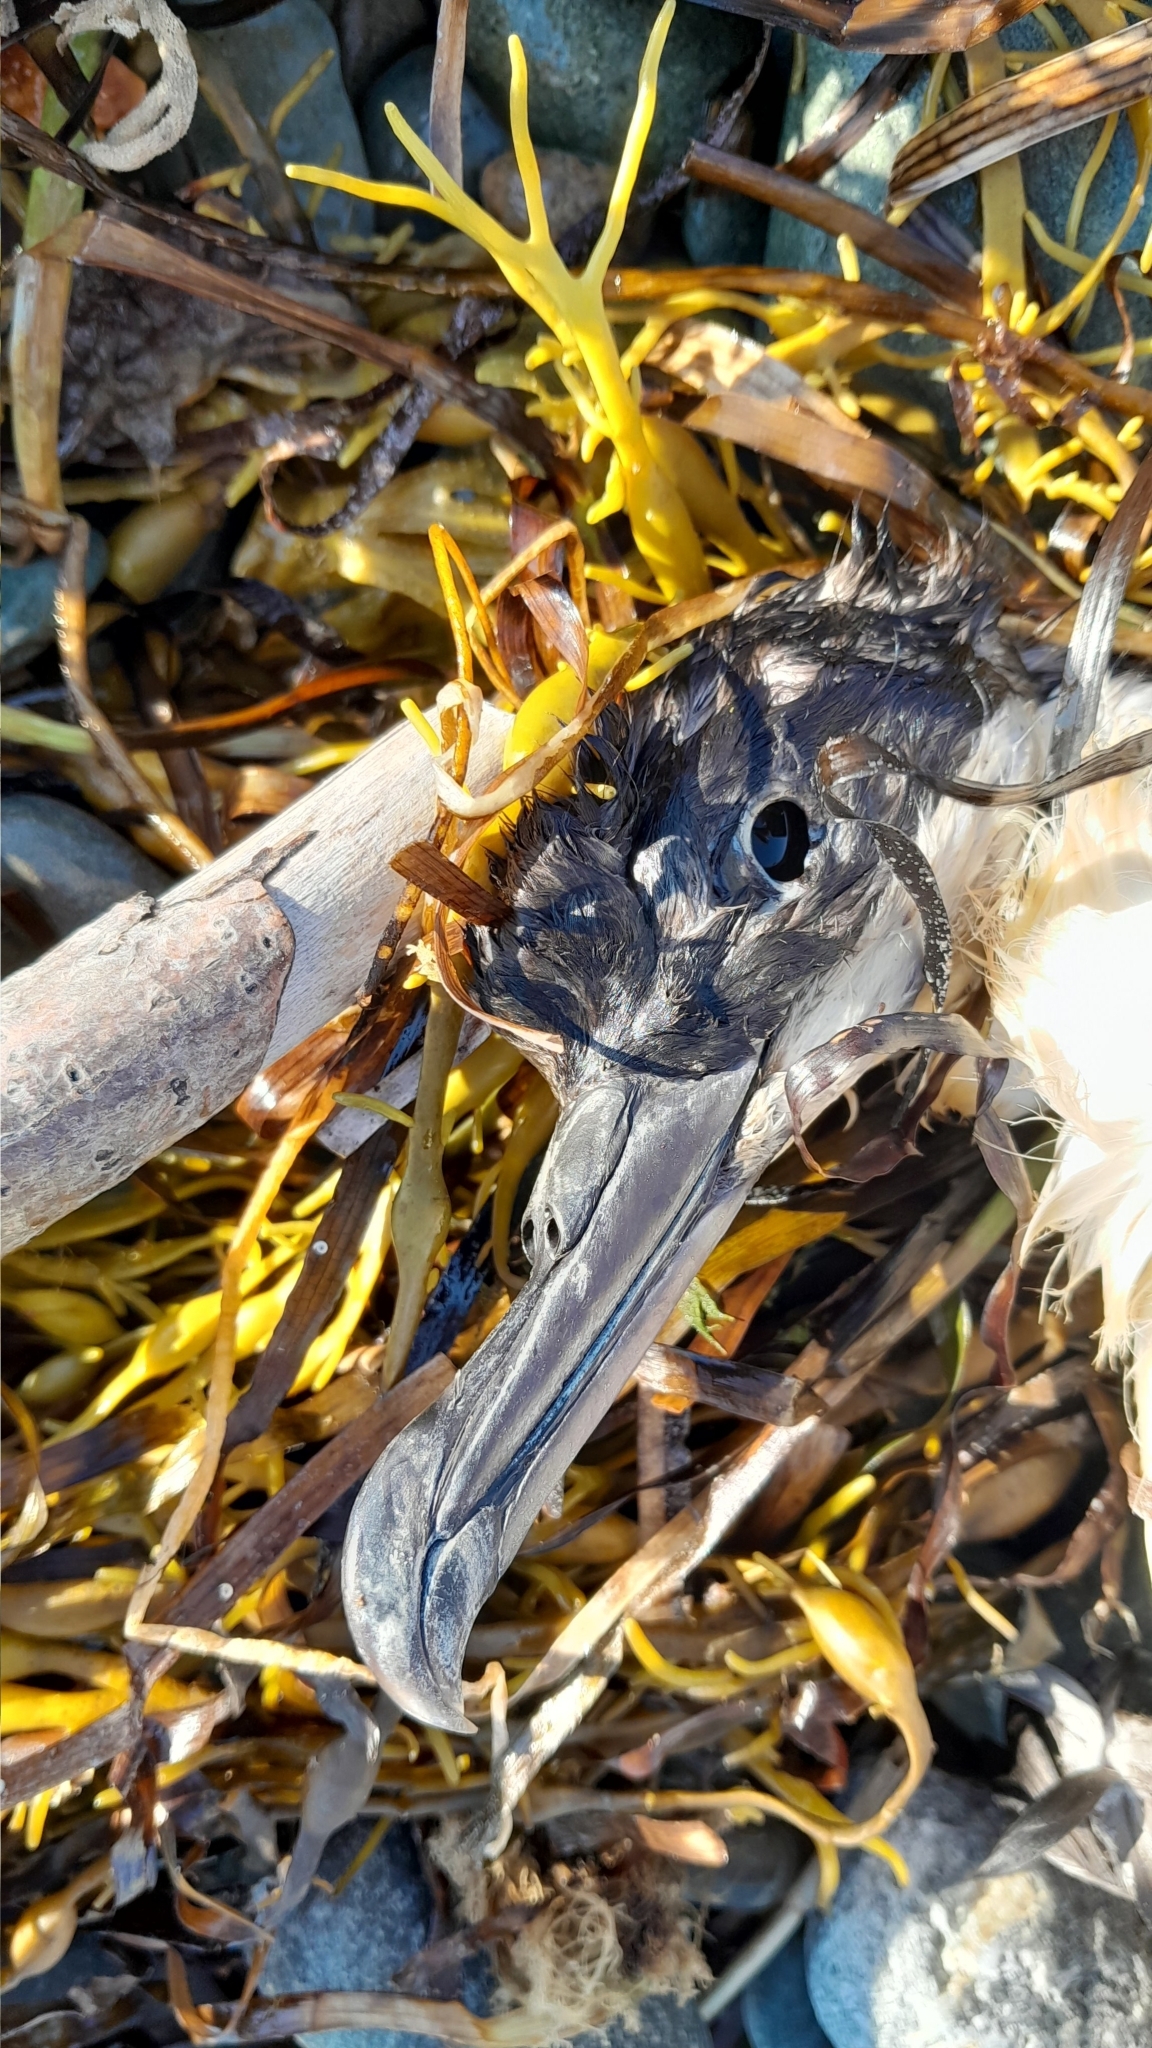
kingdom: Animalia
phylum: Chordata
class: Aves
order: Procellariiformes
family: Procellariidae
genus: Puffinus
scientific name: Puffinus puffinus
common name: Manx shearwater
